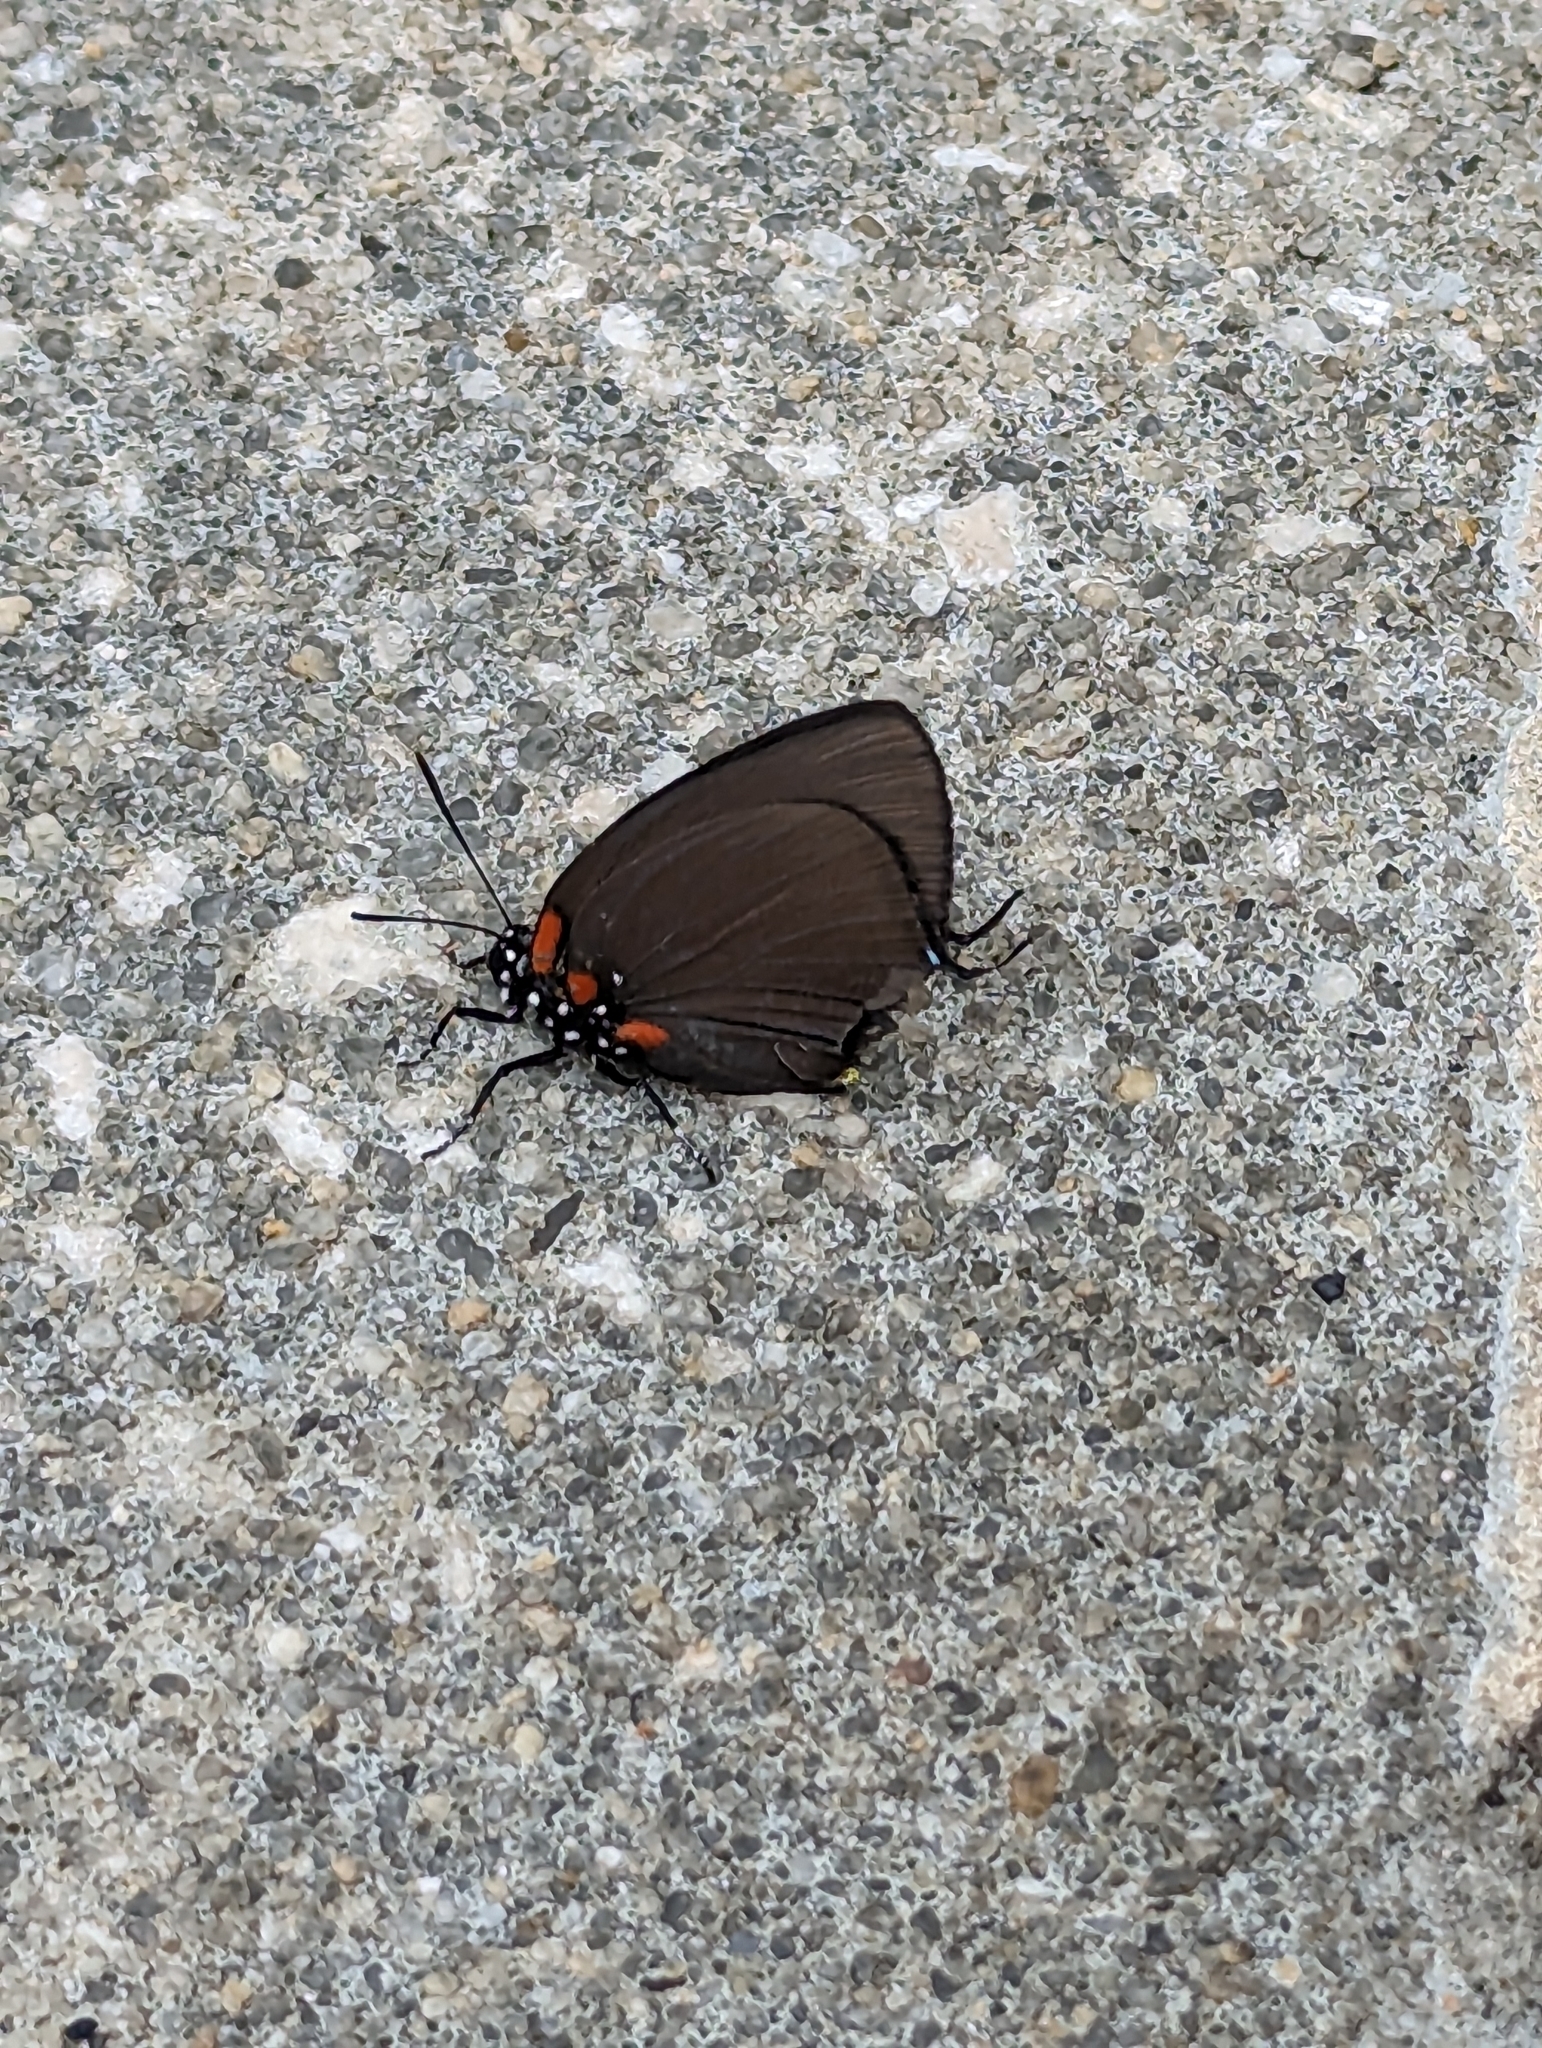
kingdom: Animalia
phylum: Arthropoda
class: Insecta
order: Lepidoptera
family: Lycaenidae
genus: Atlides
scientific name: Atlides halesus
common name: Great purple hairstreak
